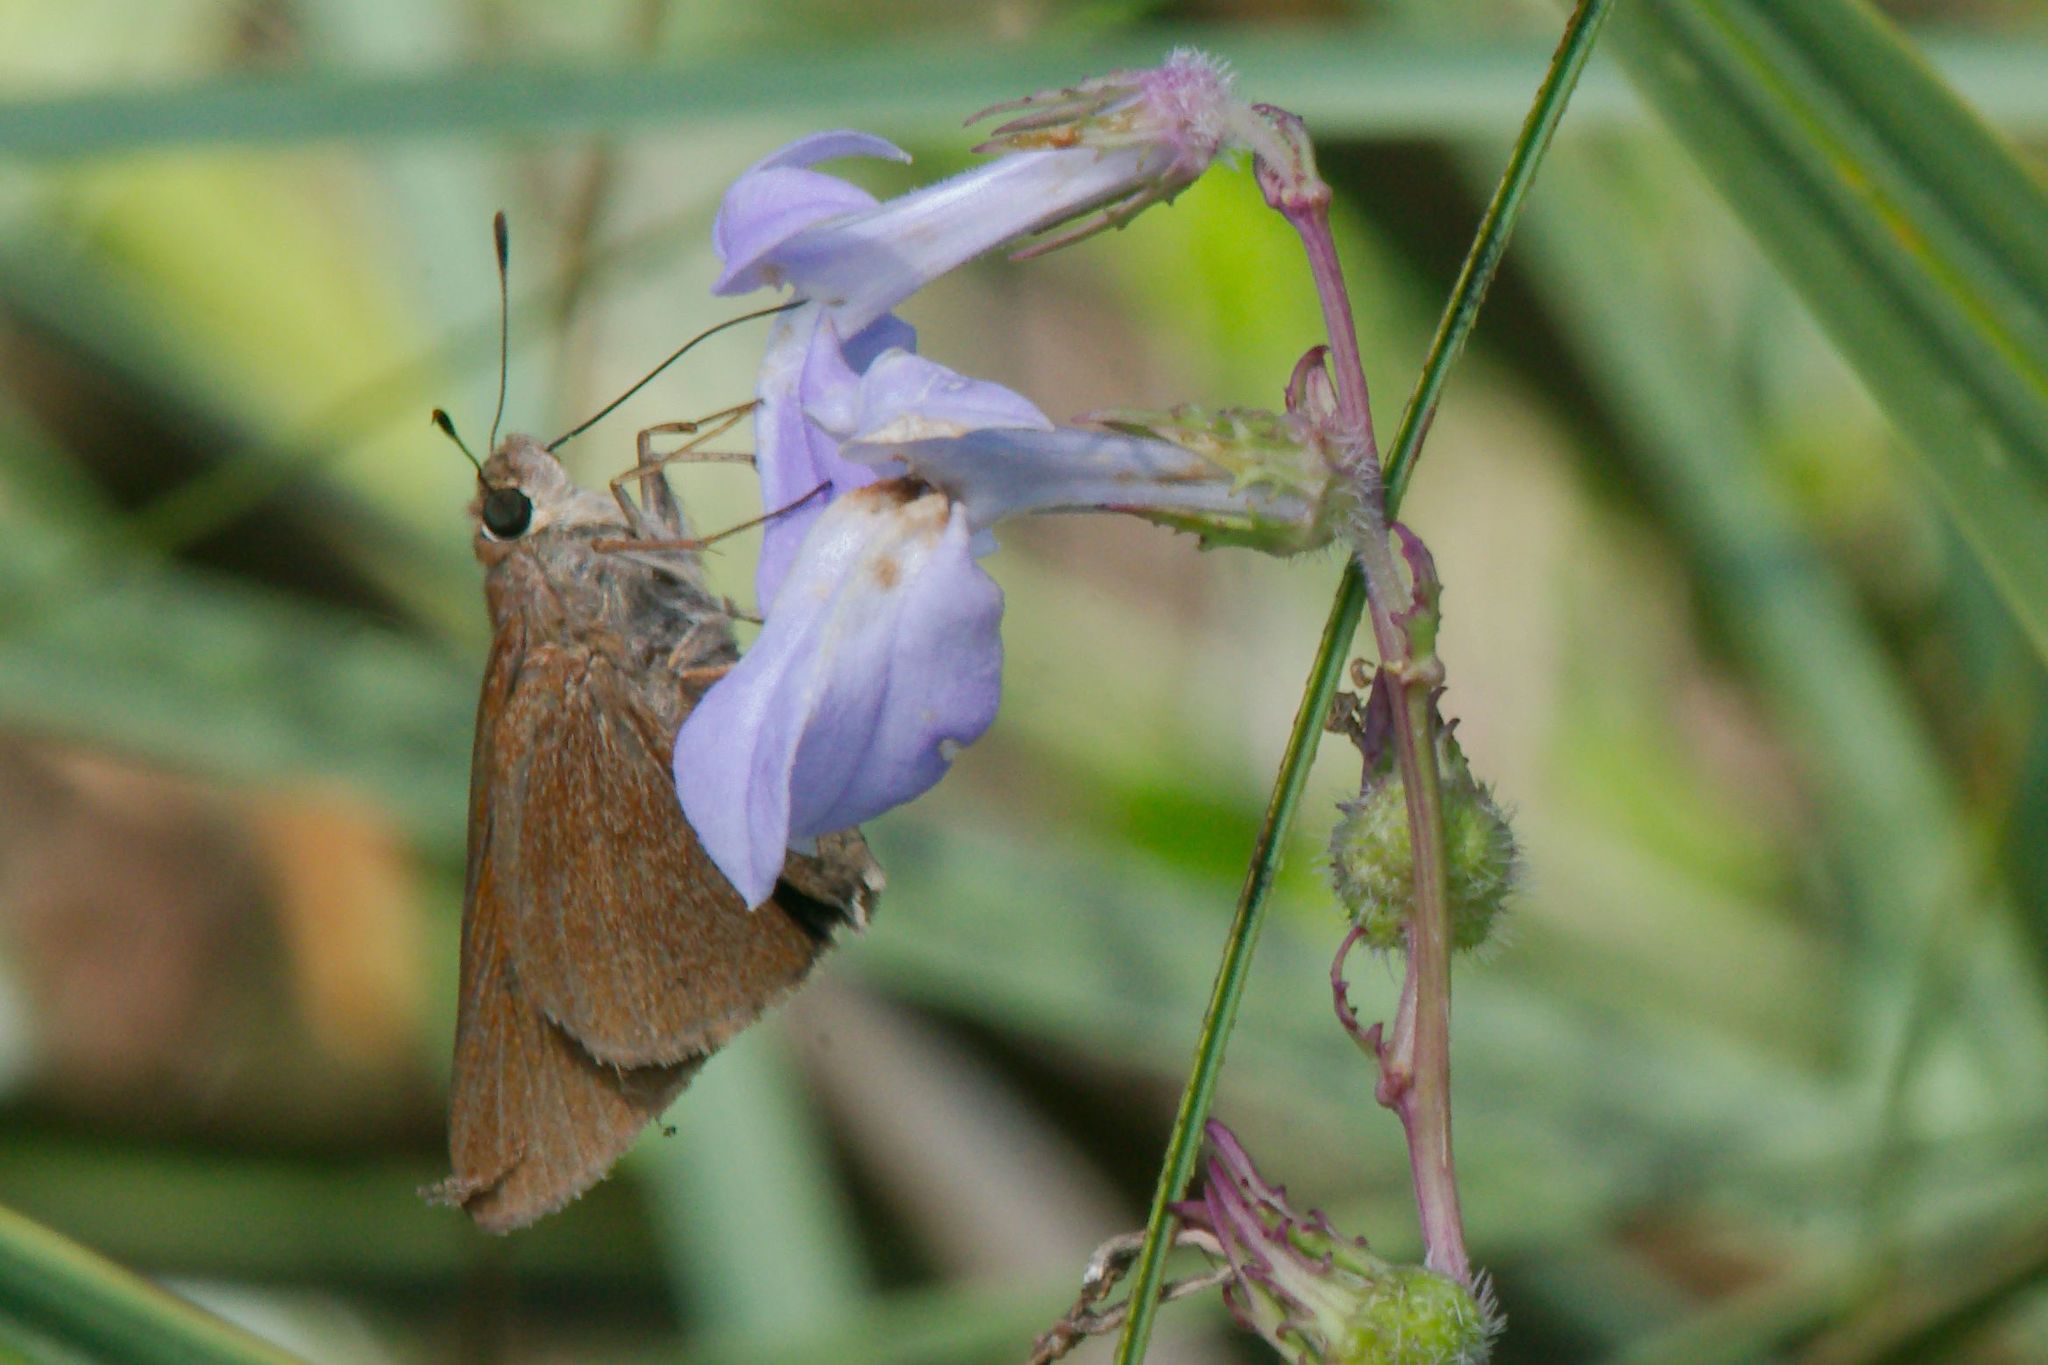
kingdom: Animalia
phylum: Arthropoda
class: Insecta
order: Lepidoptera
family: Hesperiidae
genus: Asbolis
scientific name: Asbolis capucinus
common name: Monk skipper
